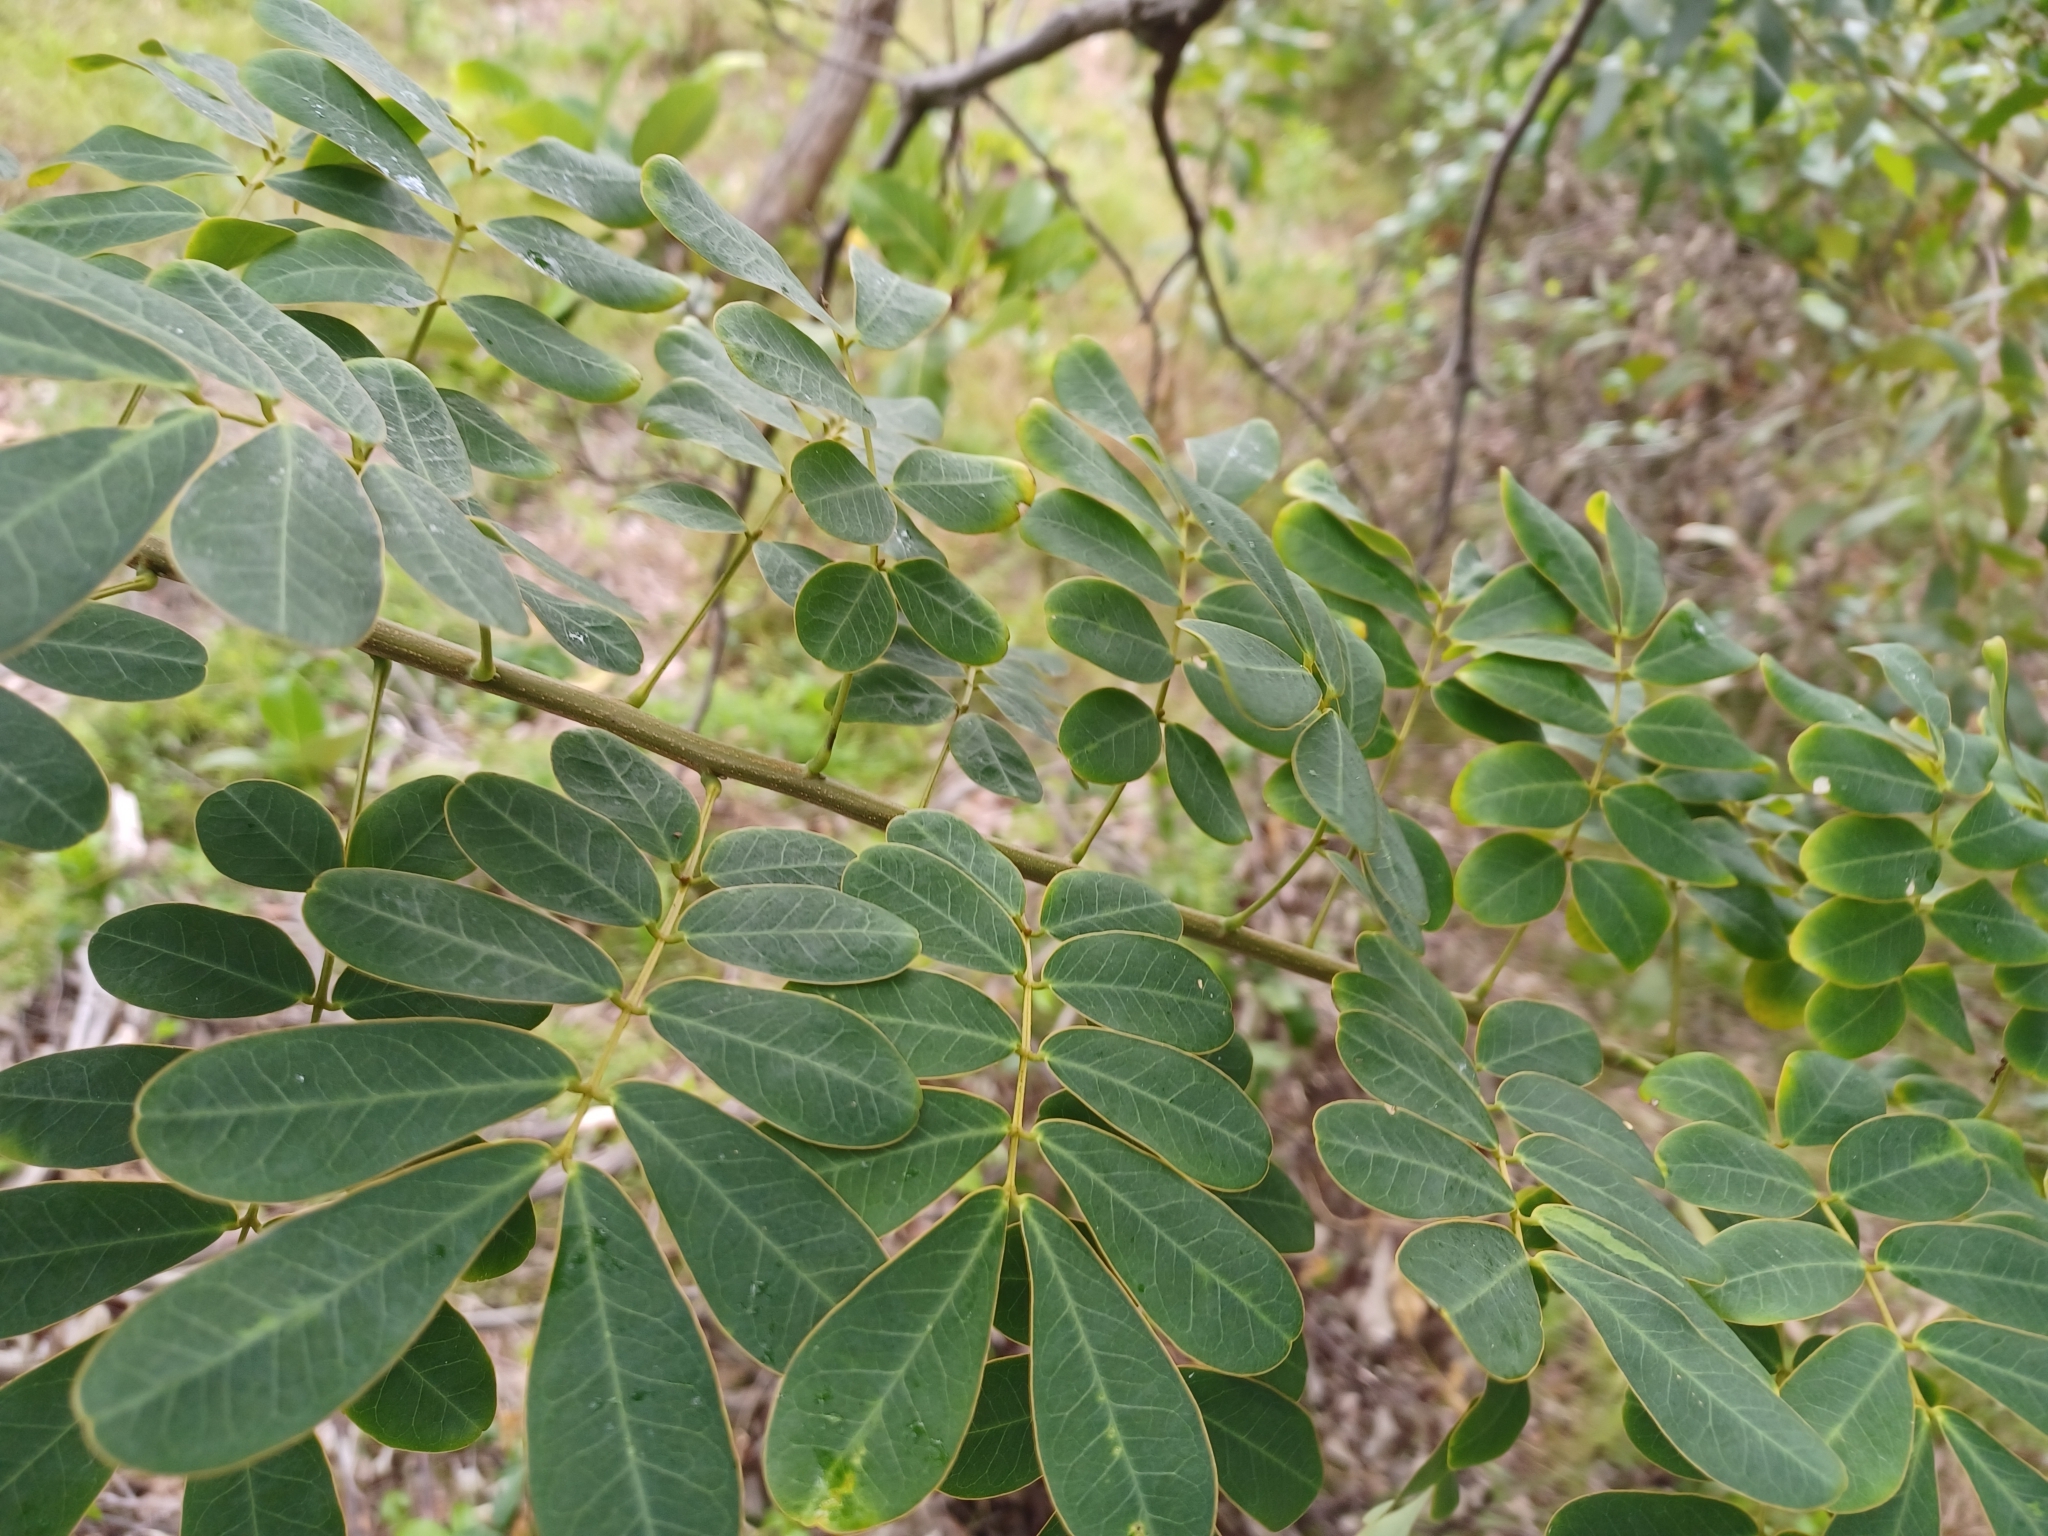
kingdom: Plantae
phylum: Tracheophyta
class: Magnoliopsida
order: Fabales
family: Fabaceae
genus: Senna
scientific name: Senna pendula
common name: Easter cassia
